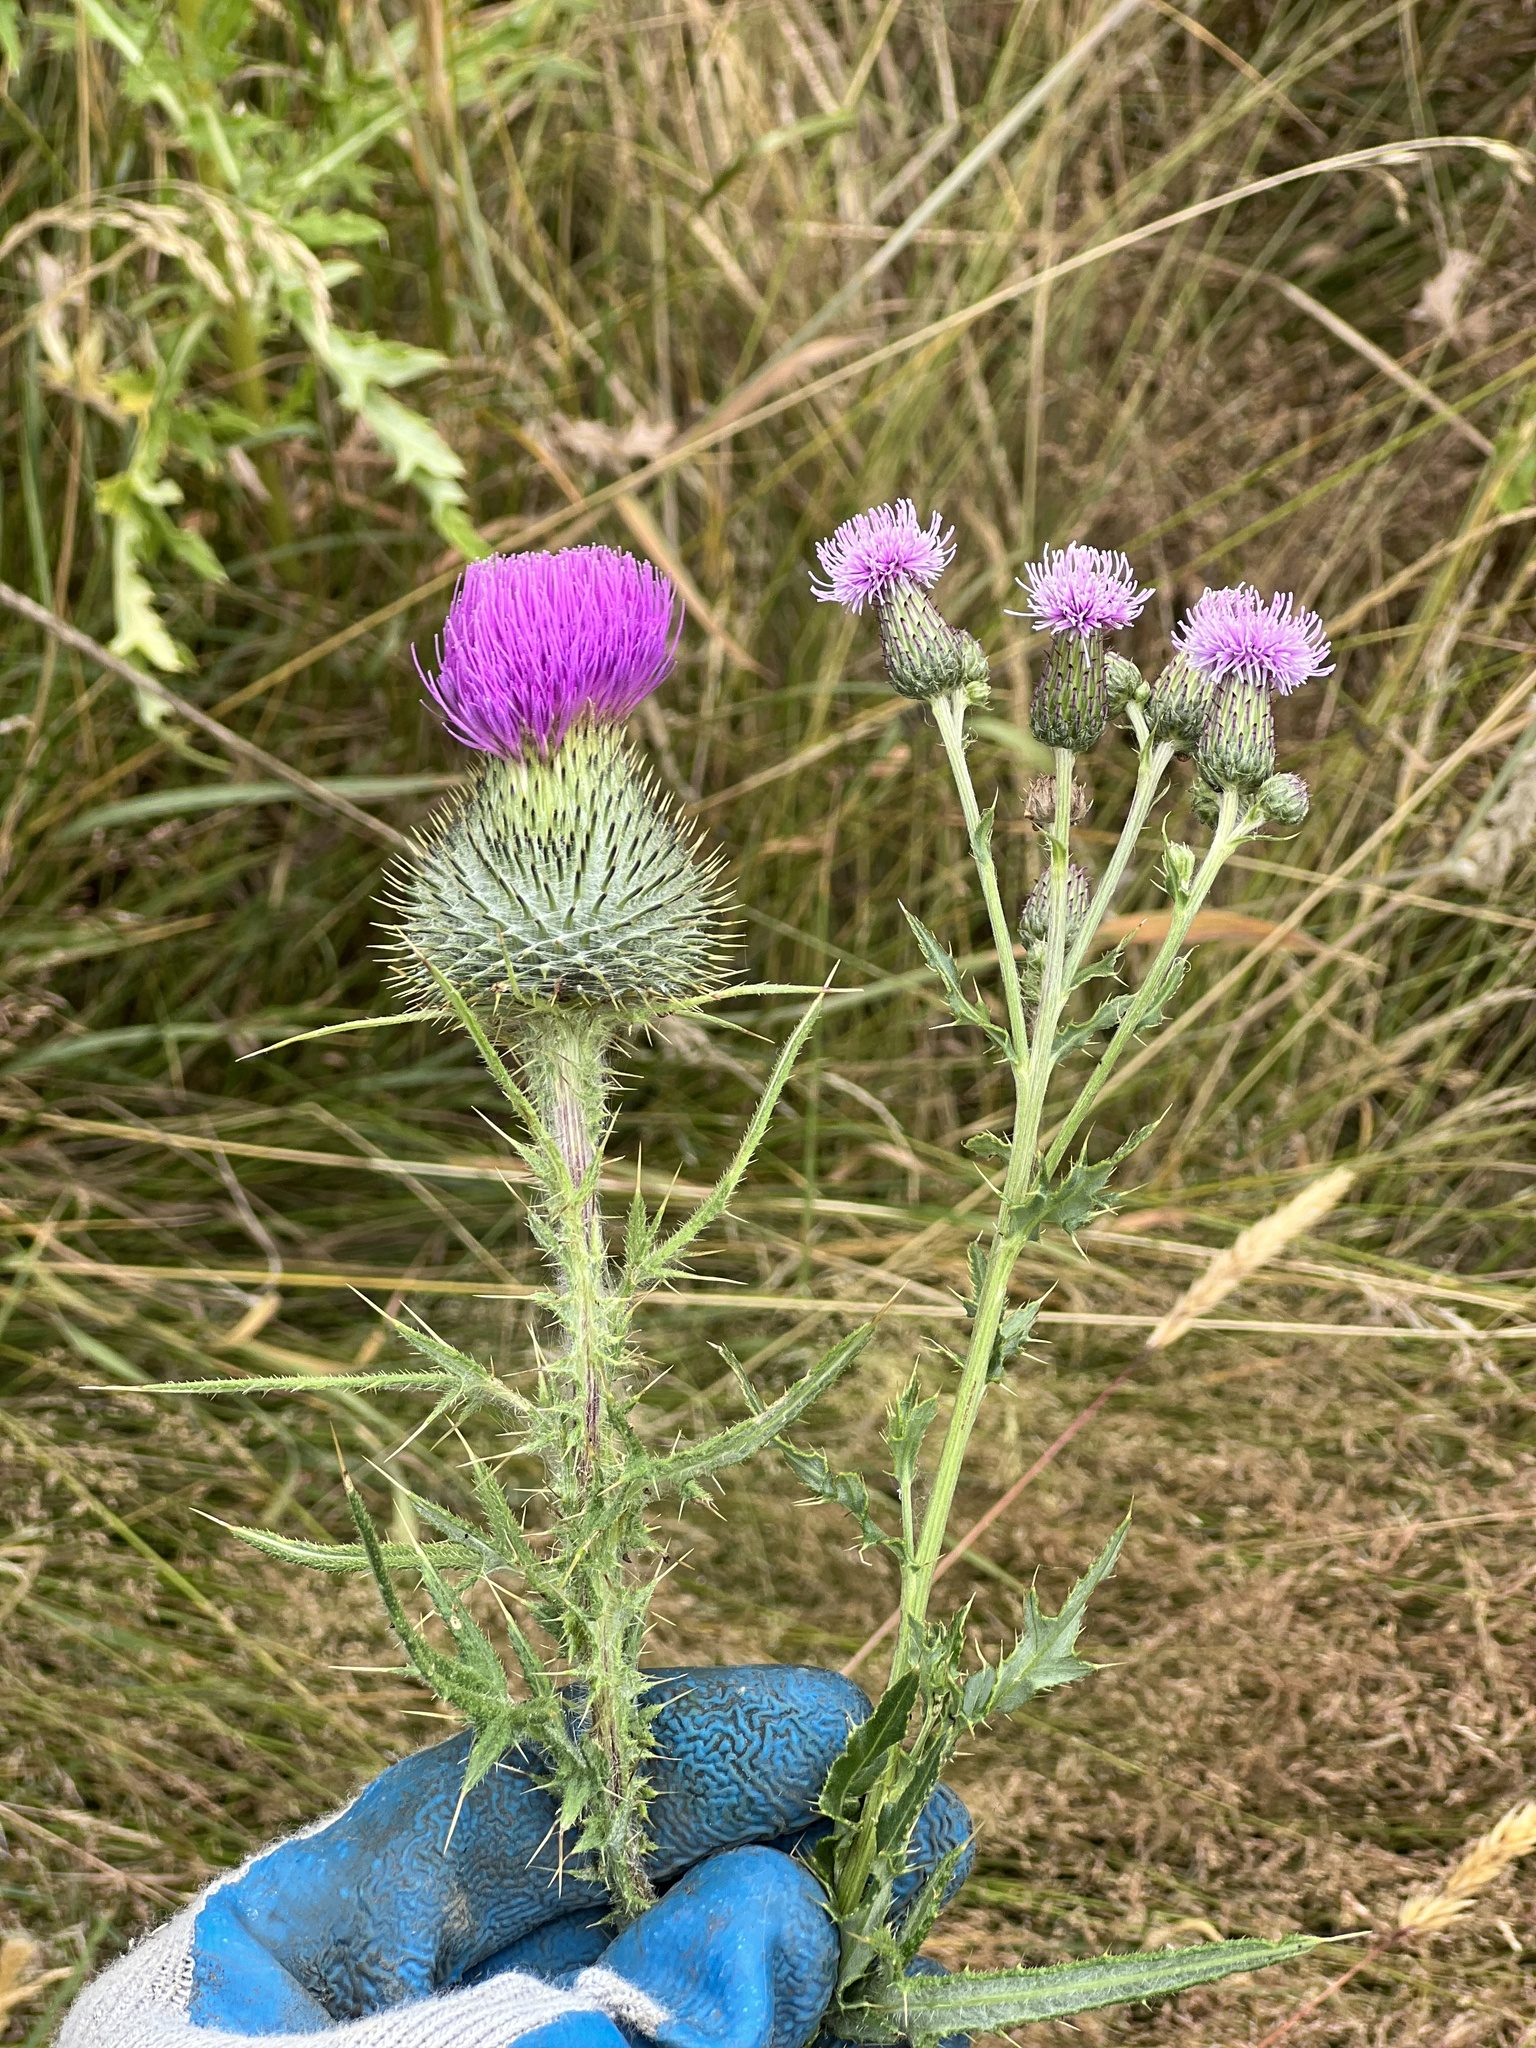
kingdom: Plantae
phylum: Tracheophyta
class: Magnoliopsida
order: Asterales
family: Asteraceae
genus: Cirsium
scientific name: Cirsium arvense
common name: Creeping thistle
